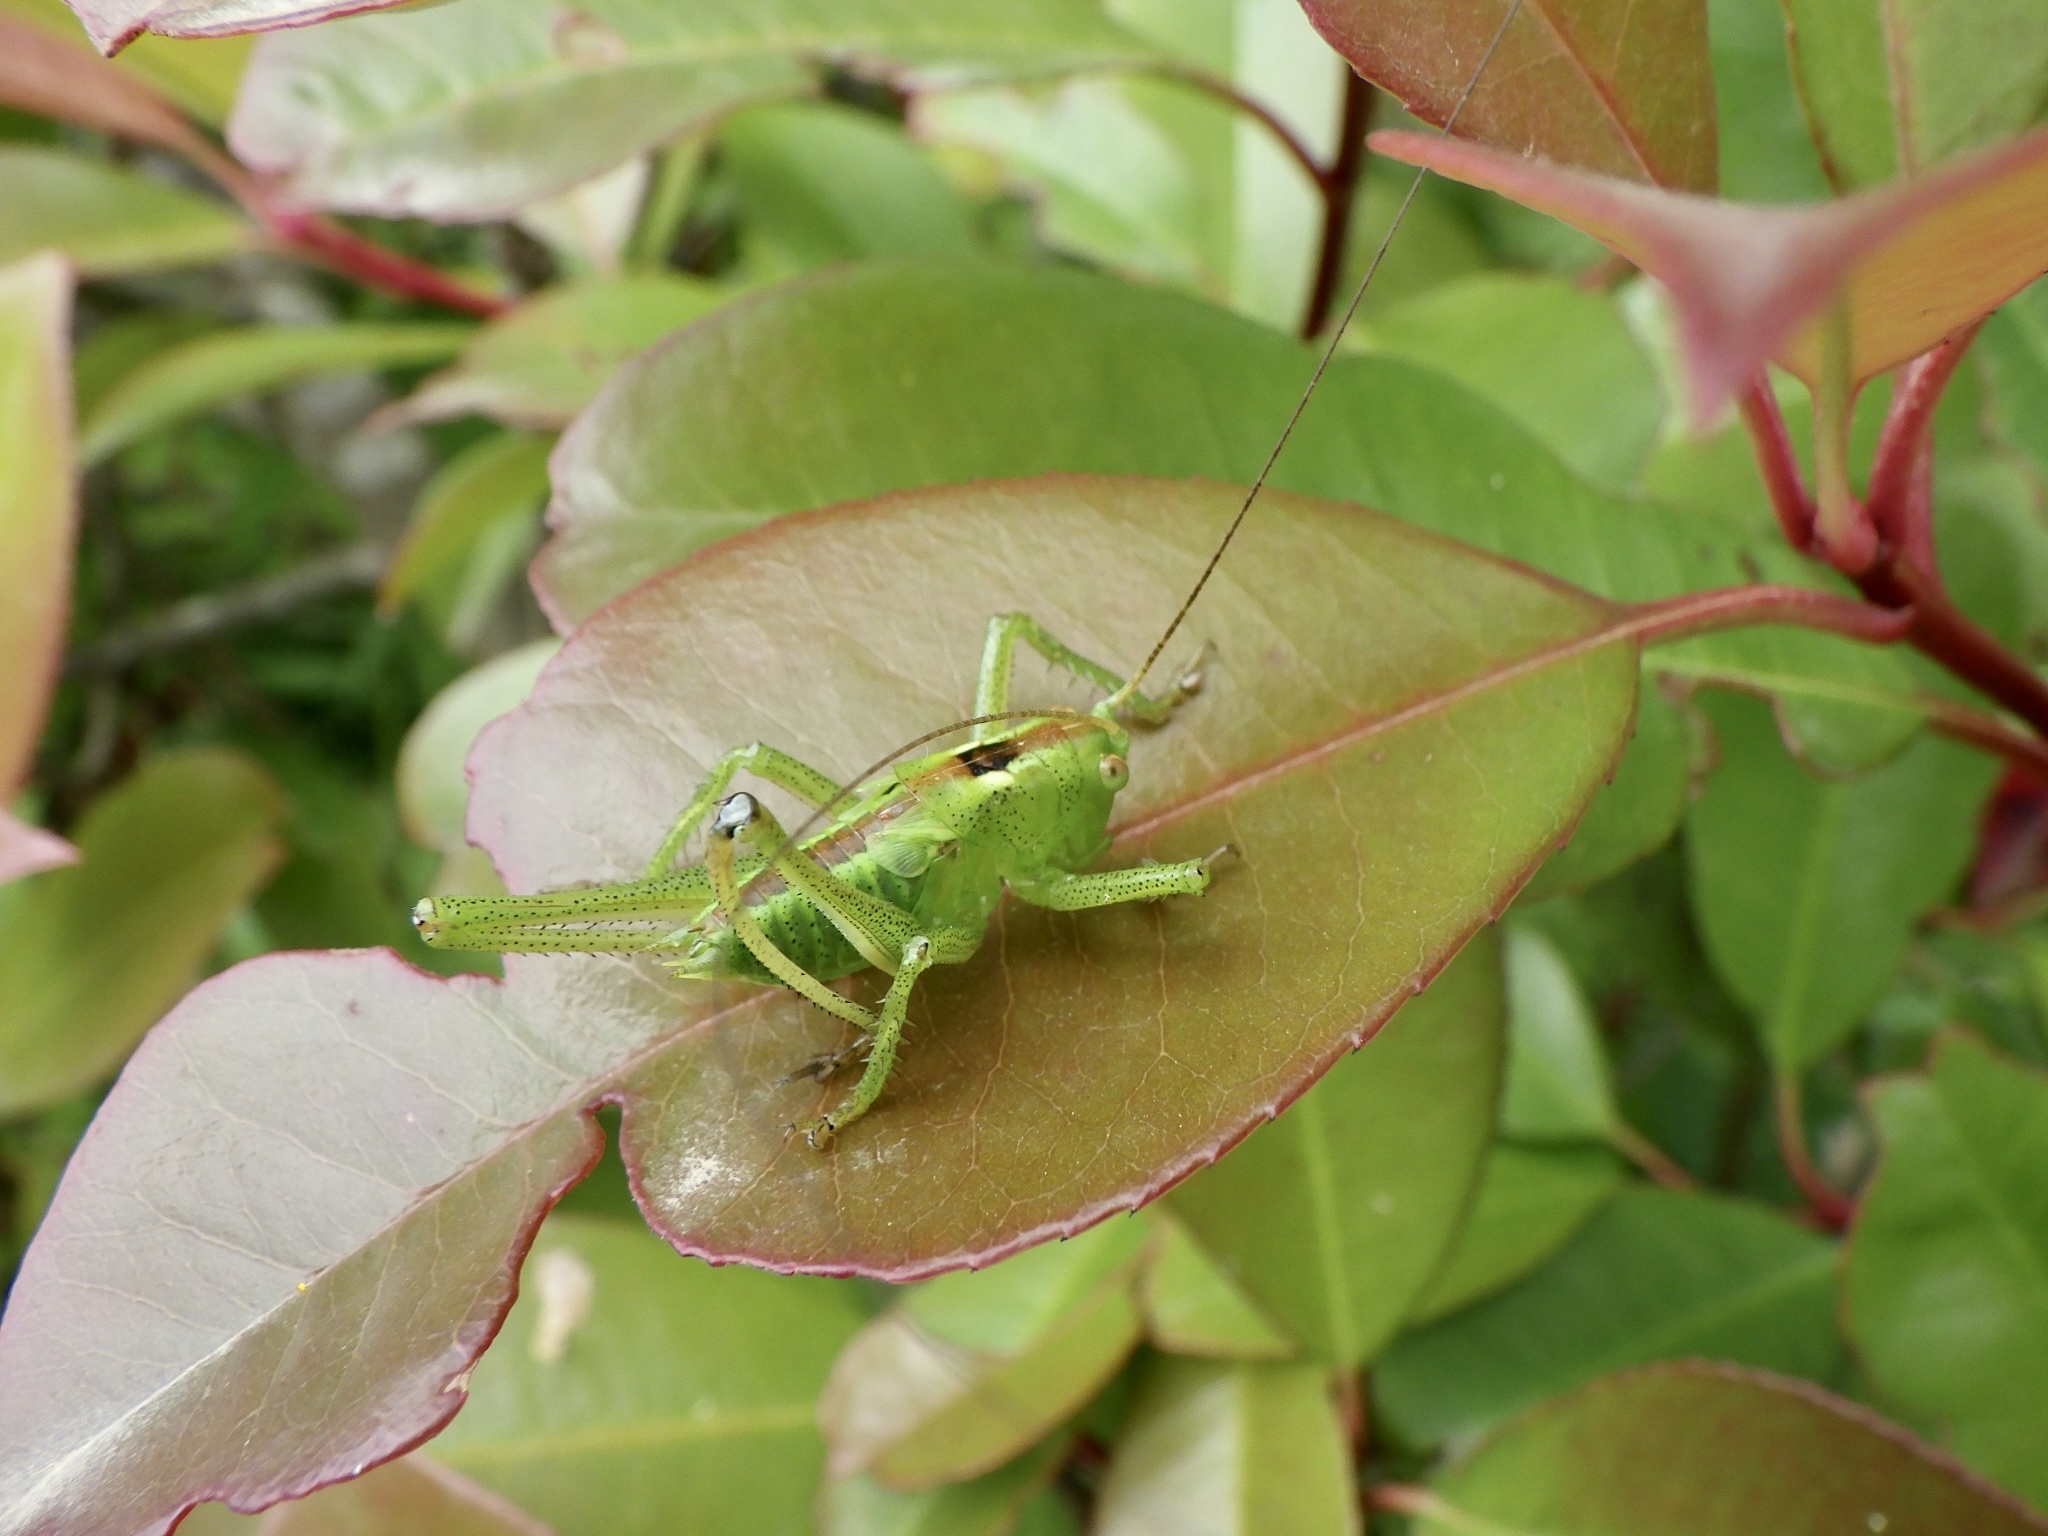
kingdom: Animalia
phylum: Arthropoda
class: Insecta
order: Orthoptera
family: Tettigoniidae
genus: Tettigonia
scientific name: Tettigonia orientalis
